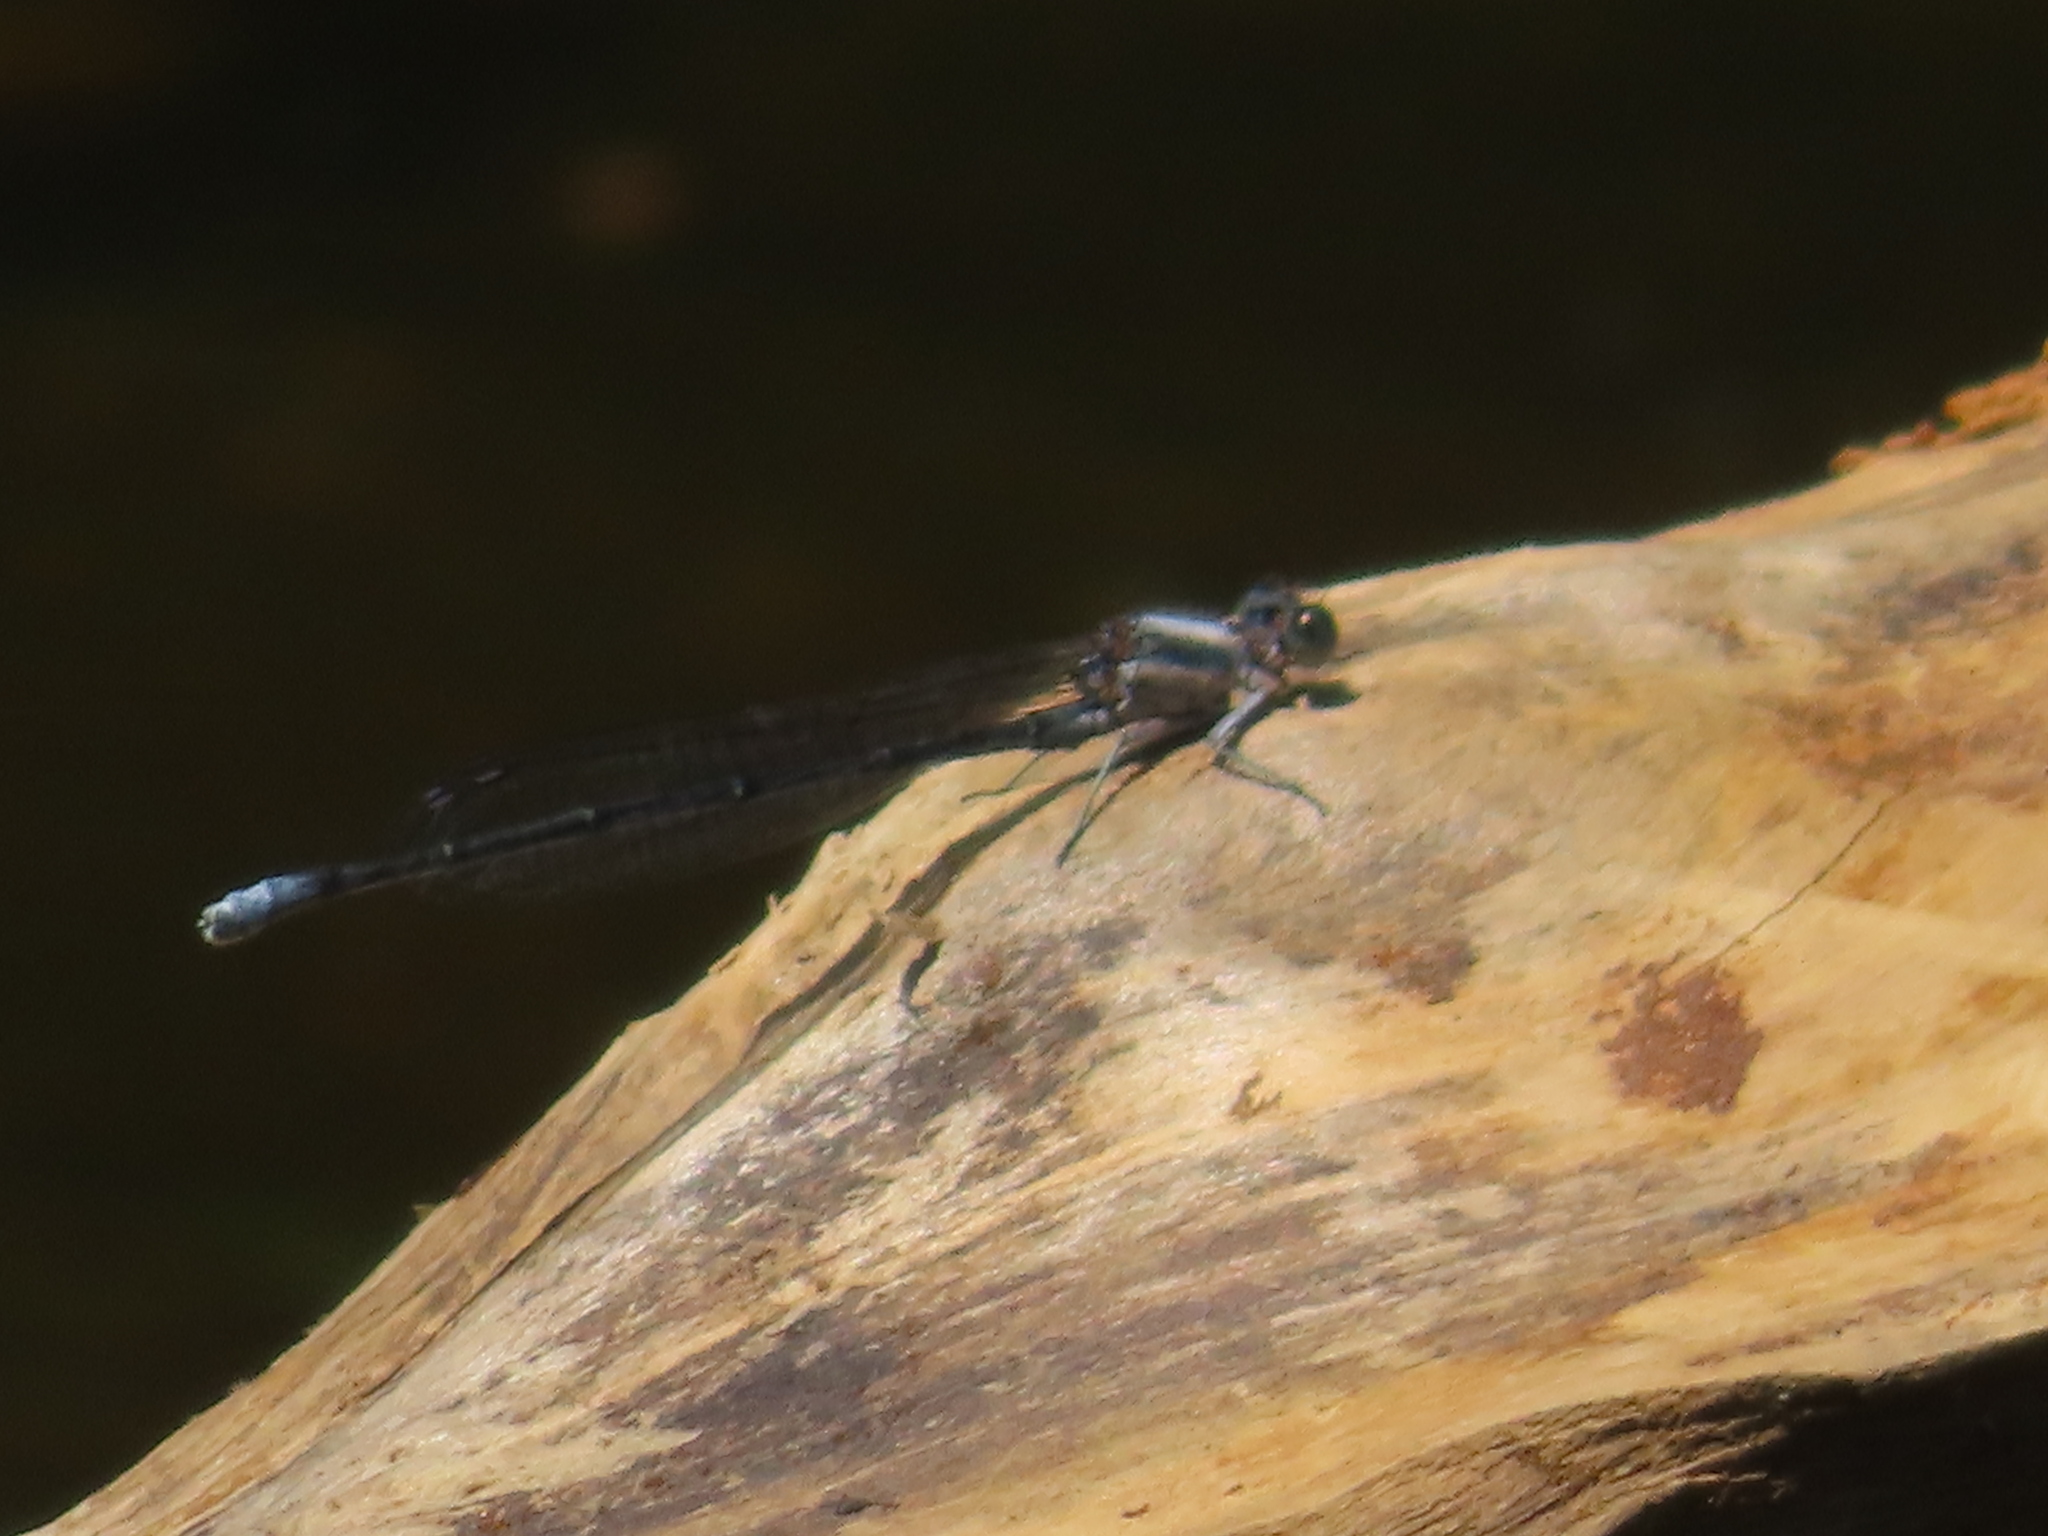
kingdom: Animalia
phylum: Arthropoda
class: Insecta
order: Odonata
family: Coenagrionidae
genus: Argia
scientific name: Argia moesta
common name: Powdered dancer
